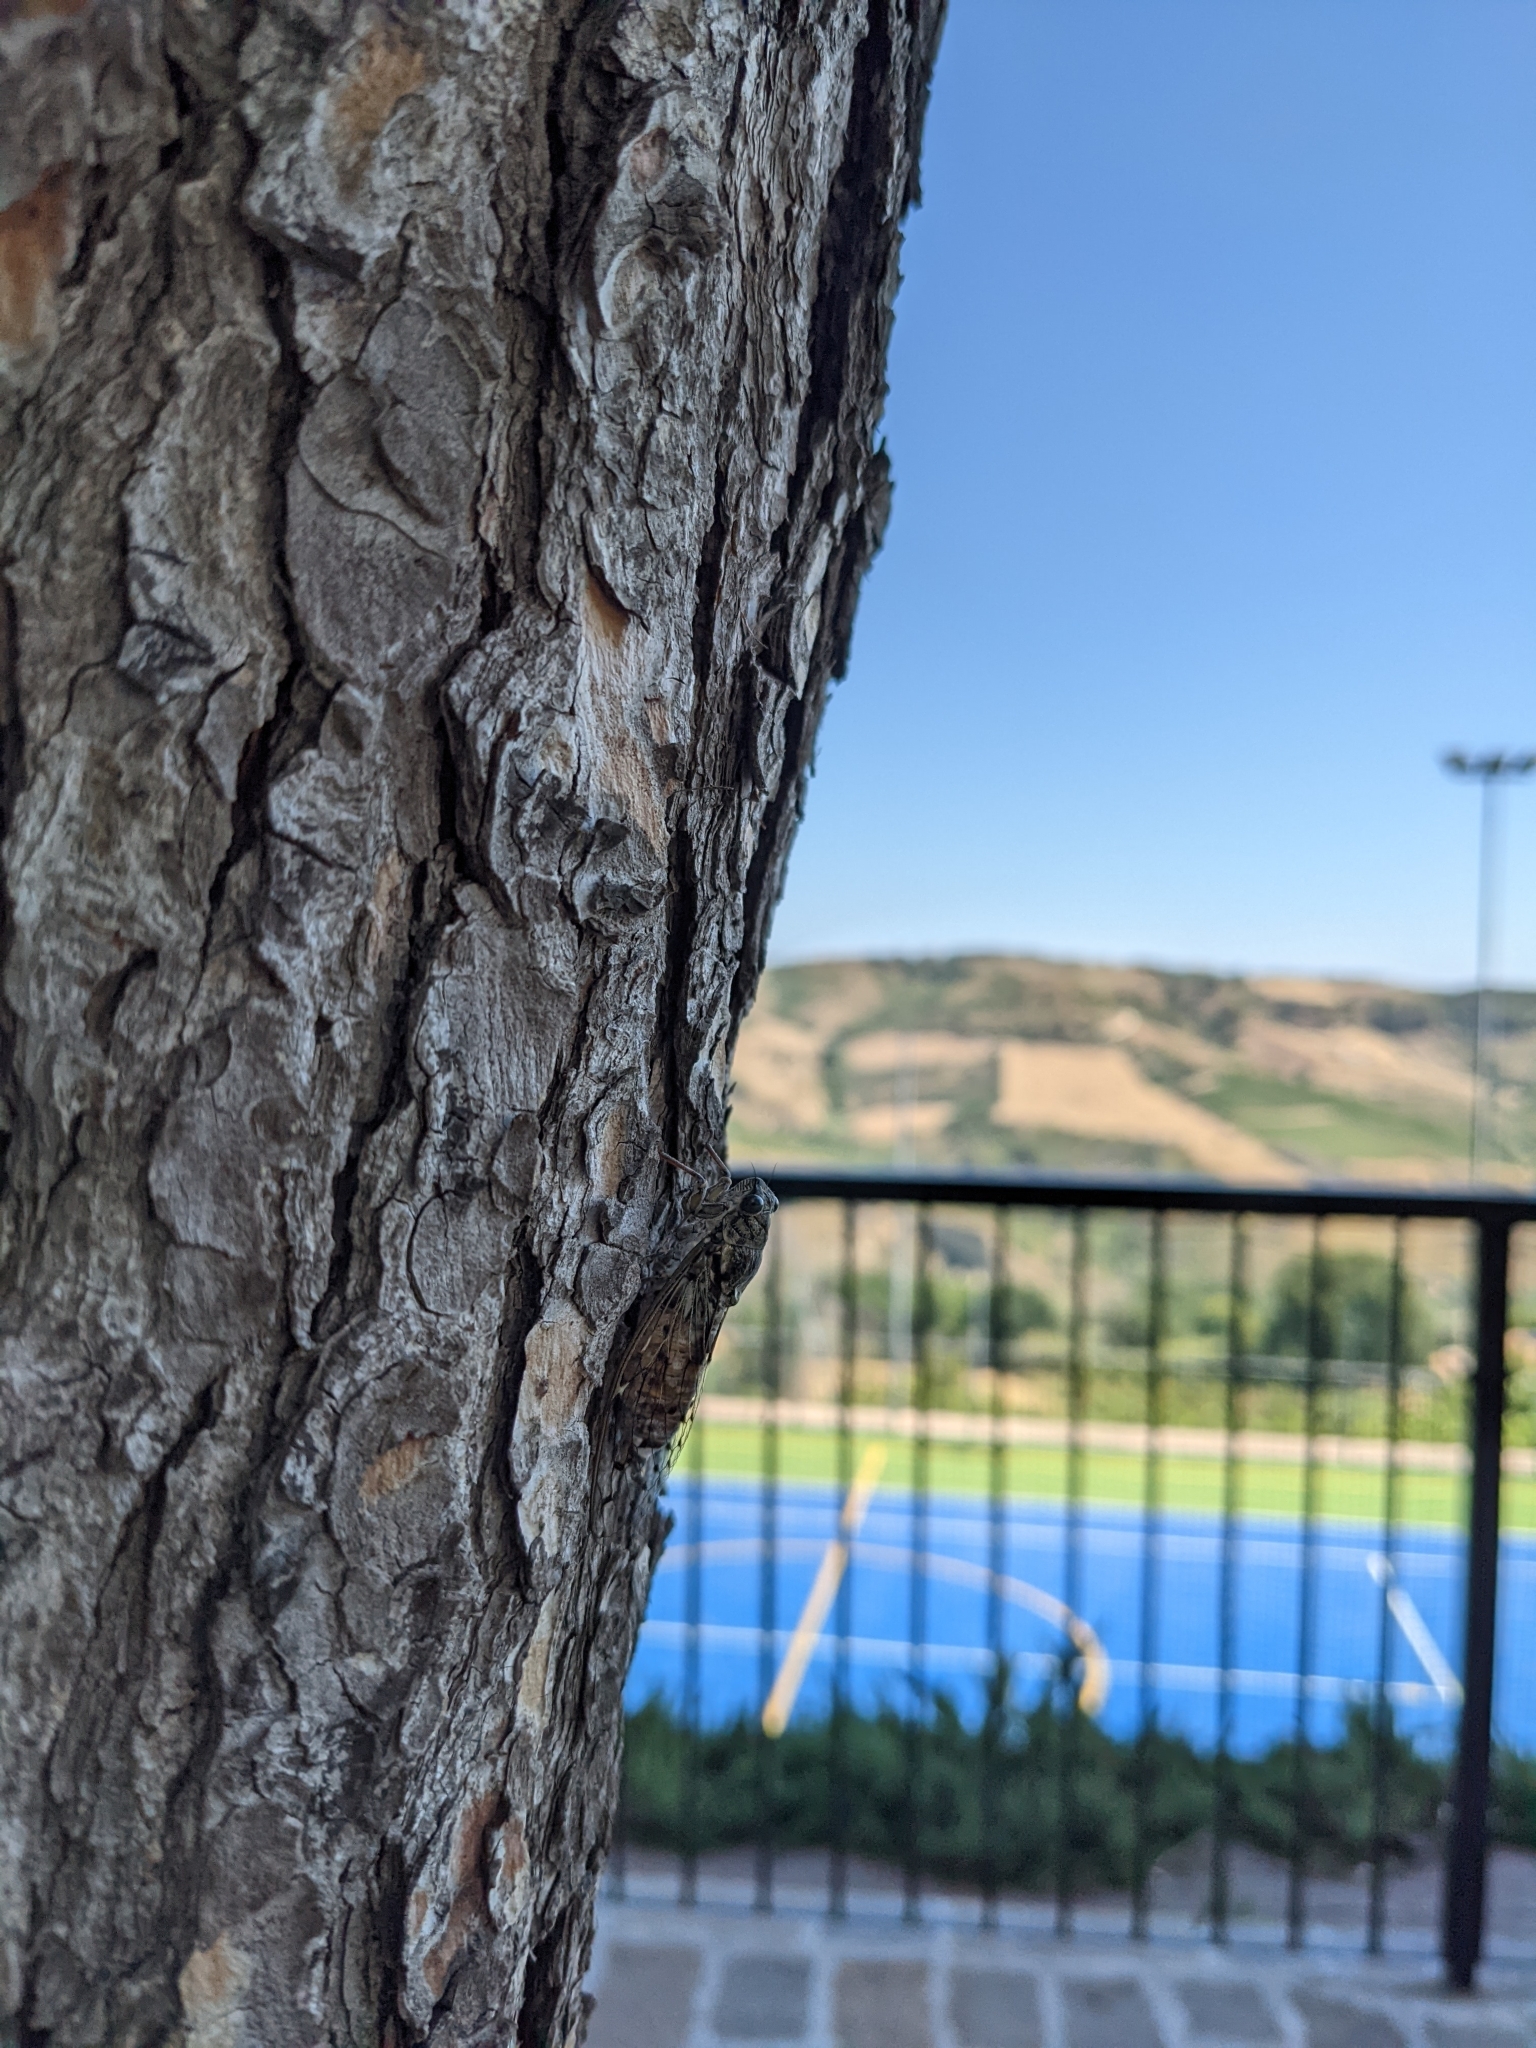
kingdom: Animalia
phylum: Arthropoda
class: Insecta
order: Hemiptera
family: Cicadidae
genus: Cicada
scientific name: Cicada orni
